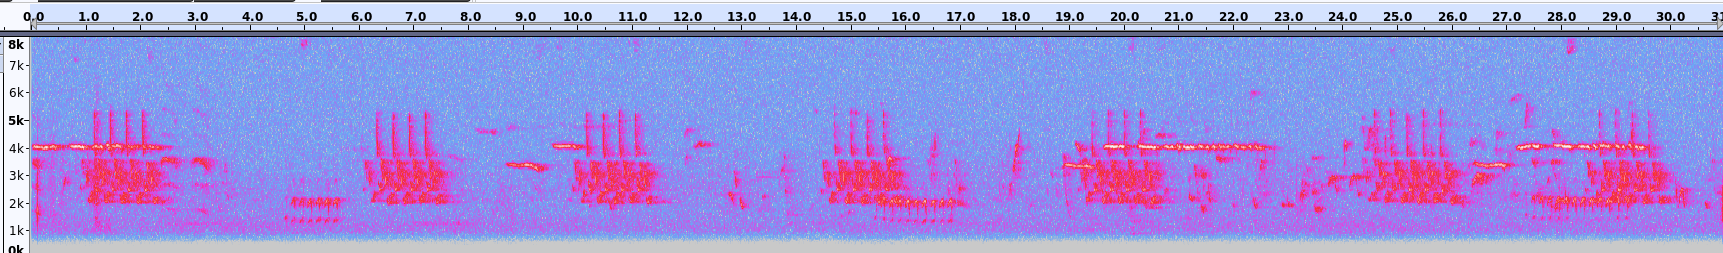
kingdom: Animalia
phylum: Chordata
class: Aves
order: Passeriformes
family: Passerellidae
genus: Zonotrichia
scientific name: Zonotrichia albicollis
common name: White-throated sparrow
